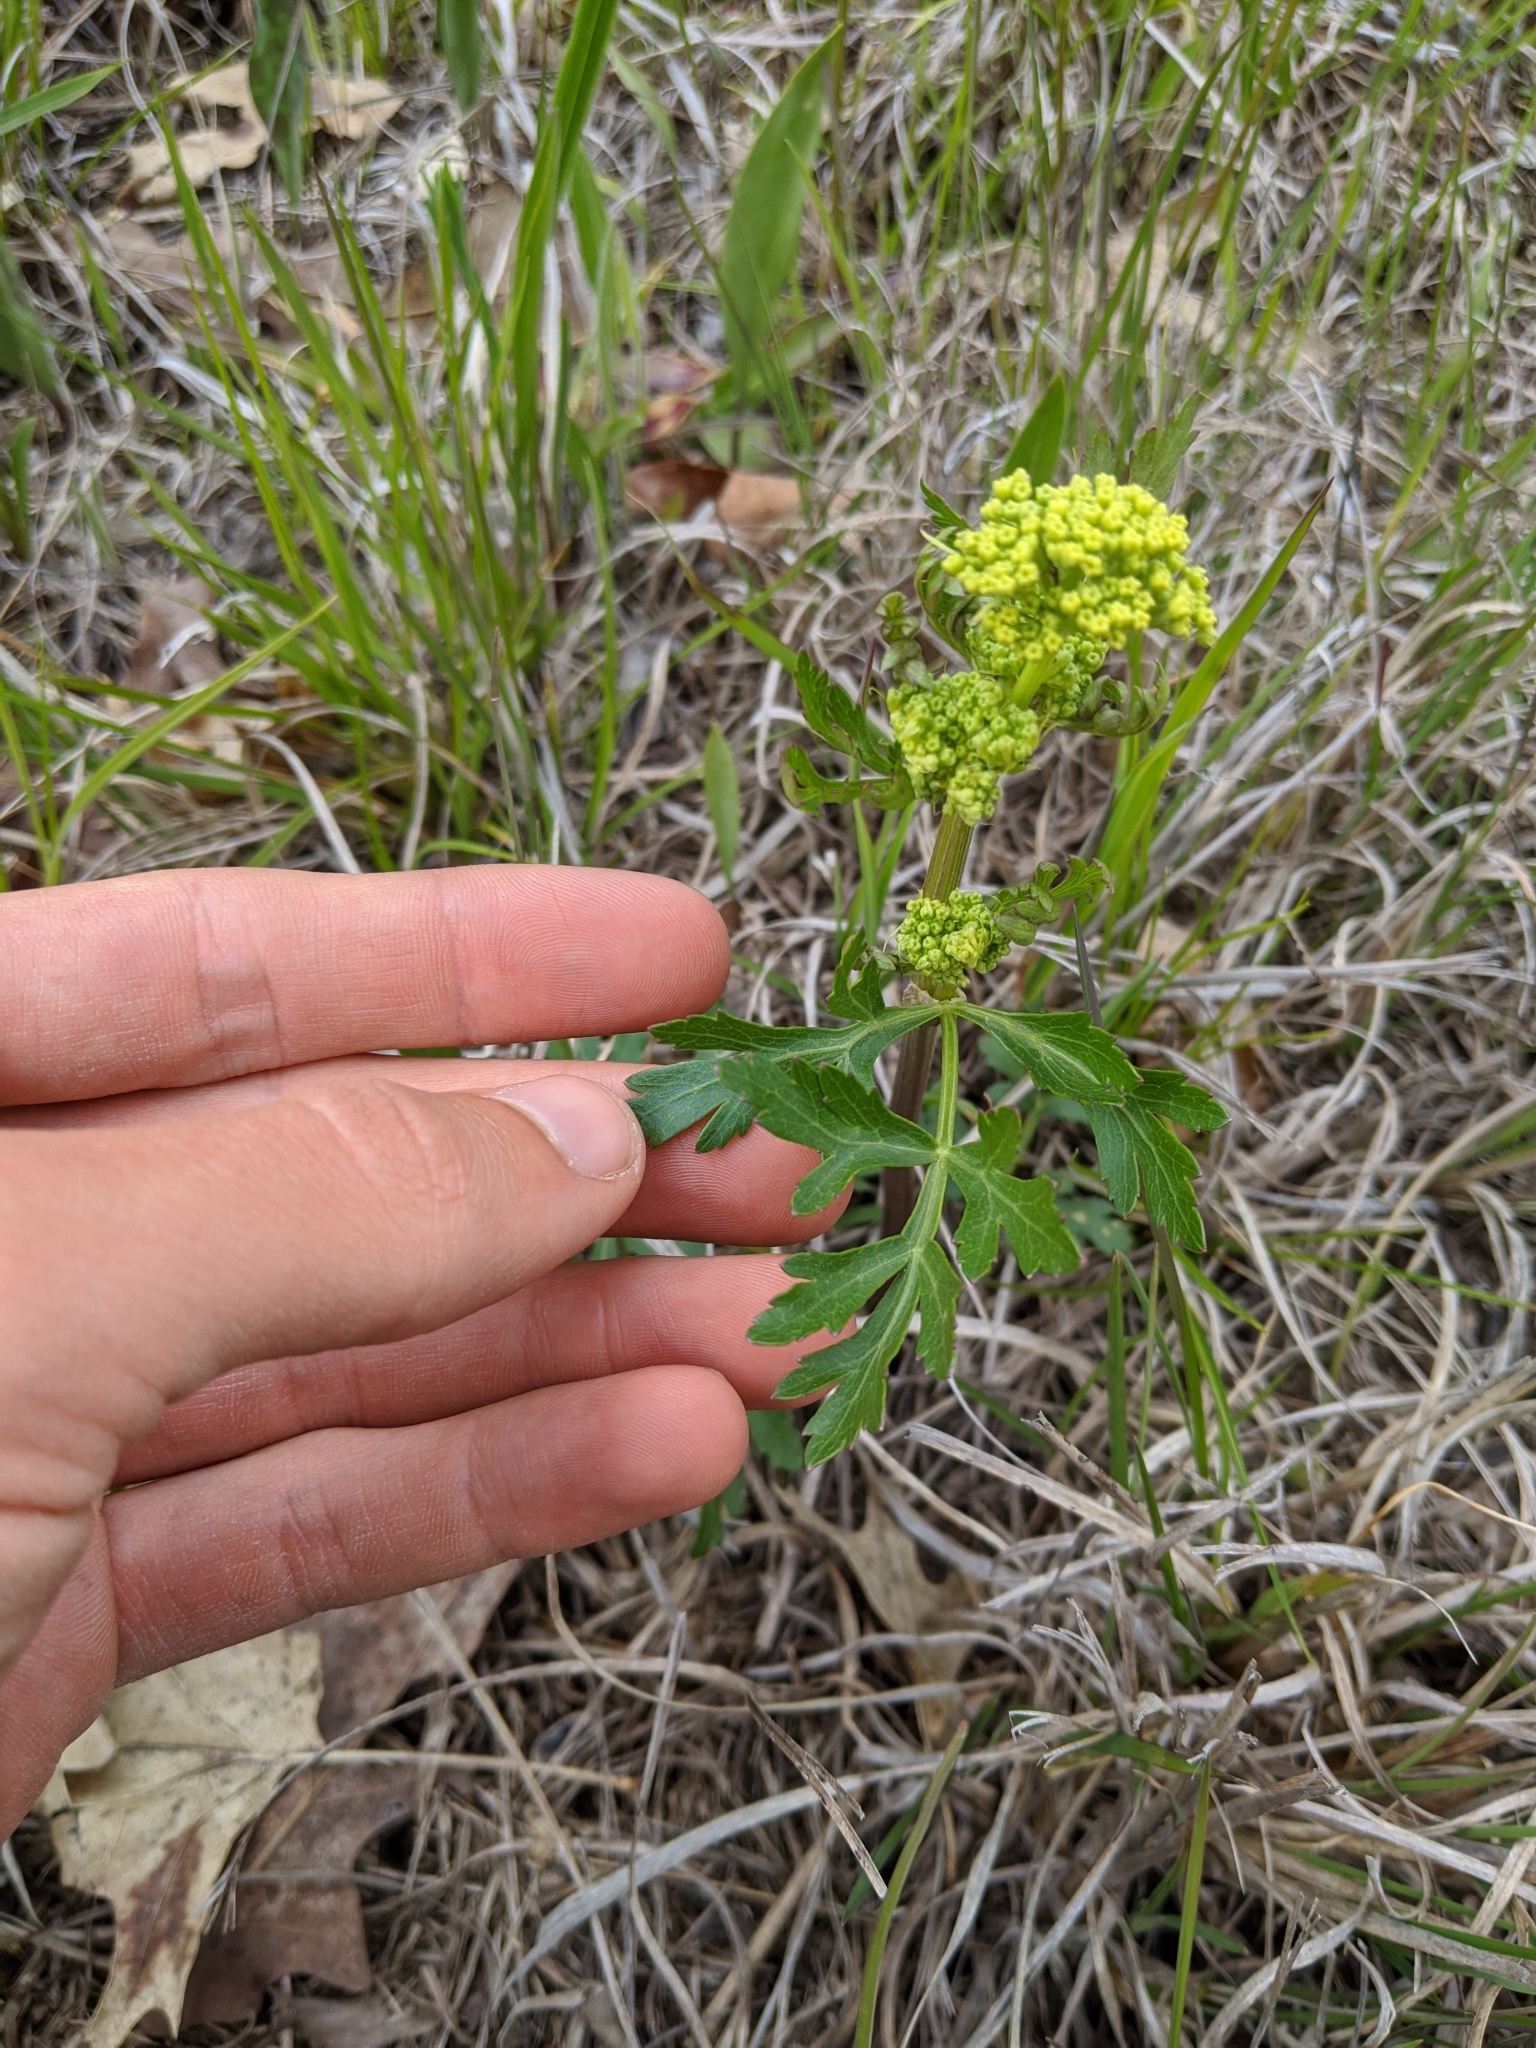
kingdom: Plantae
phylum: Tracheophyta
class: Magnoliopsida
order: Apiales
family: Apiaceae
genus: Polytaenia
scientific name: Polytaenia nuttallii
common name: Prairie-parsley
